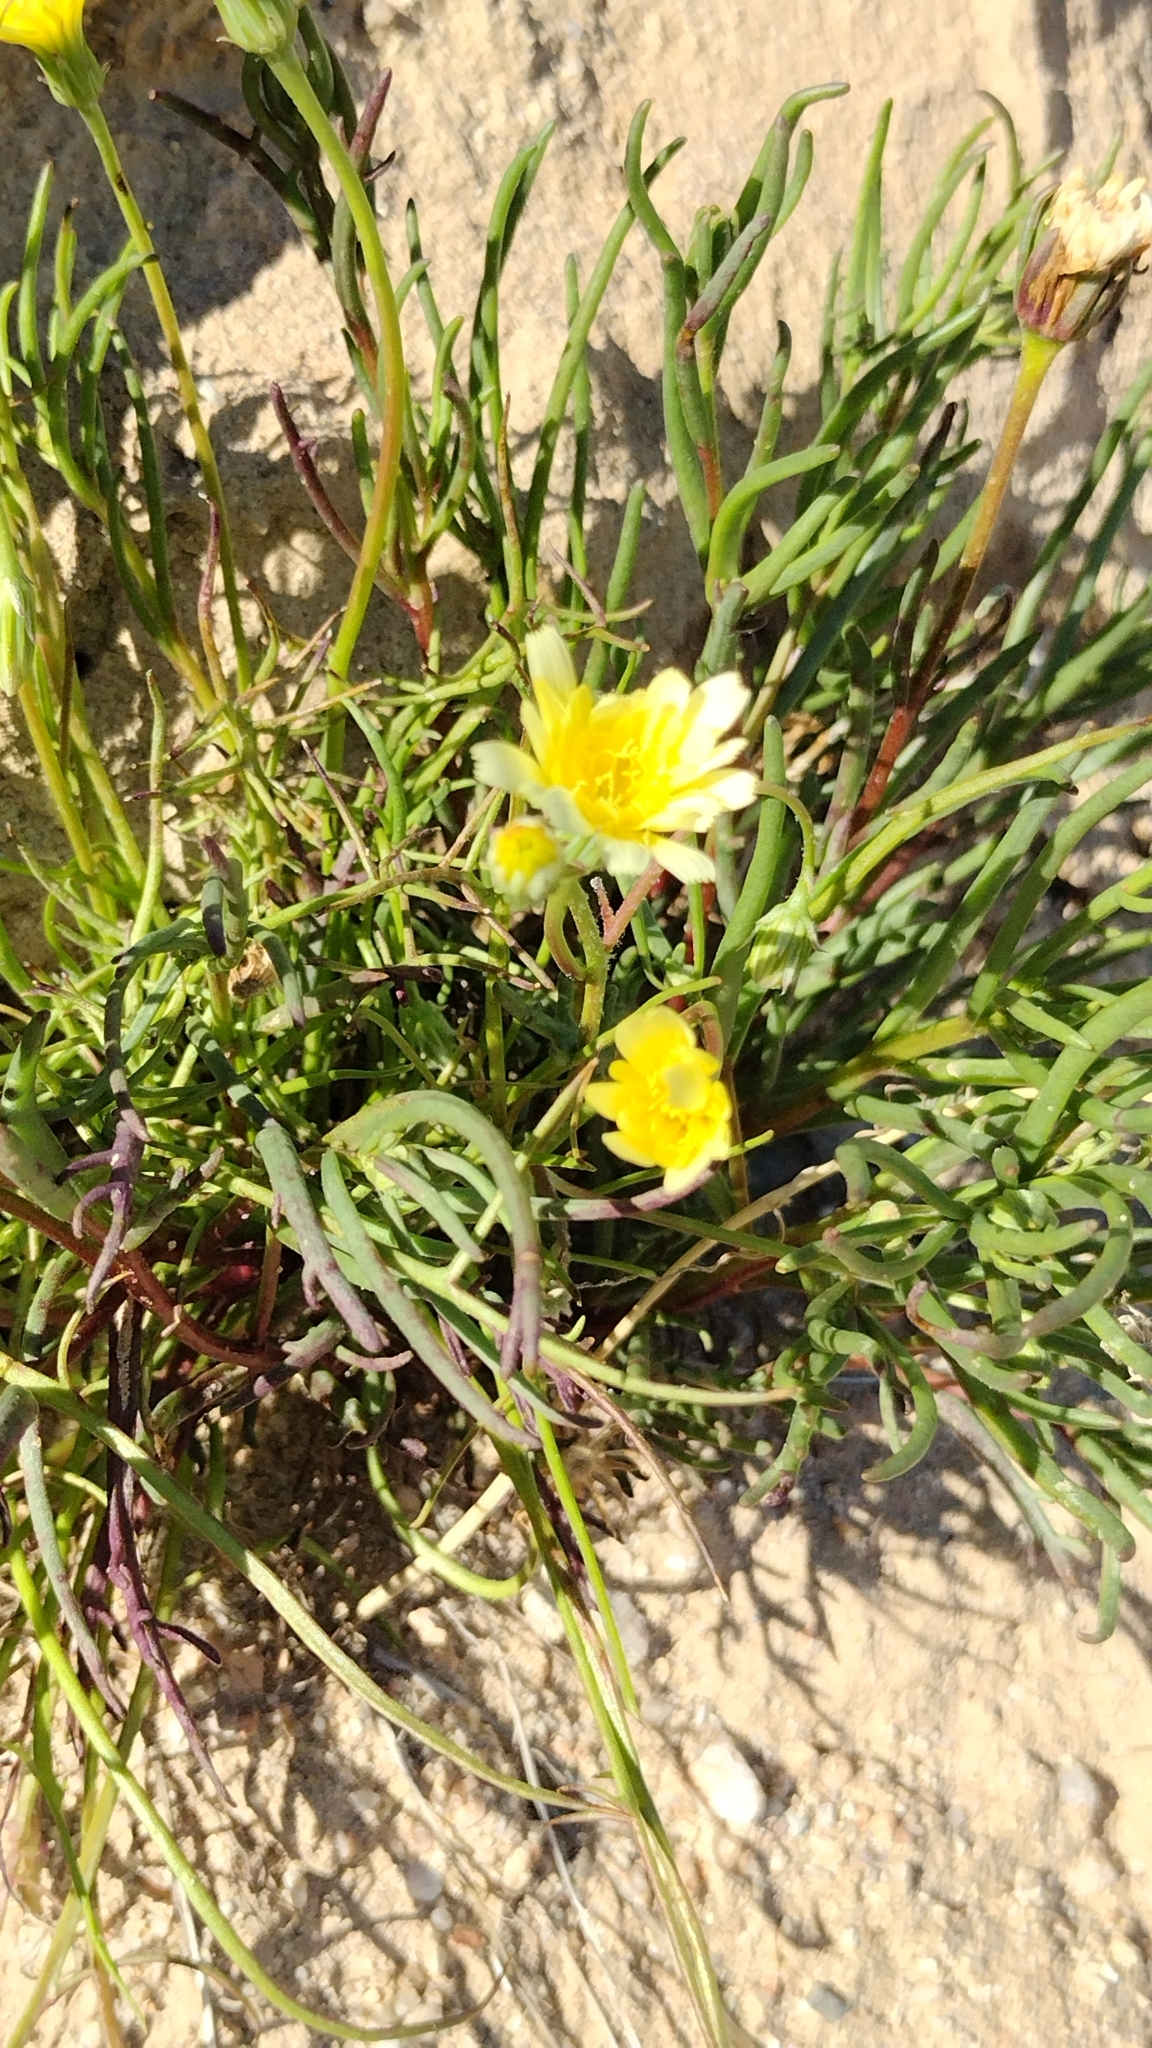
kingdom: Plantae
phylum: Tracheophyta
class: Magnoliopsida
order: Asterales
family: Asteraceae
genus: Malacothrix
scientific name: Malacothrix glabrata
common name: Smooth desert-dandelion
